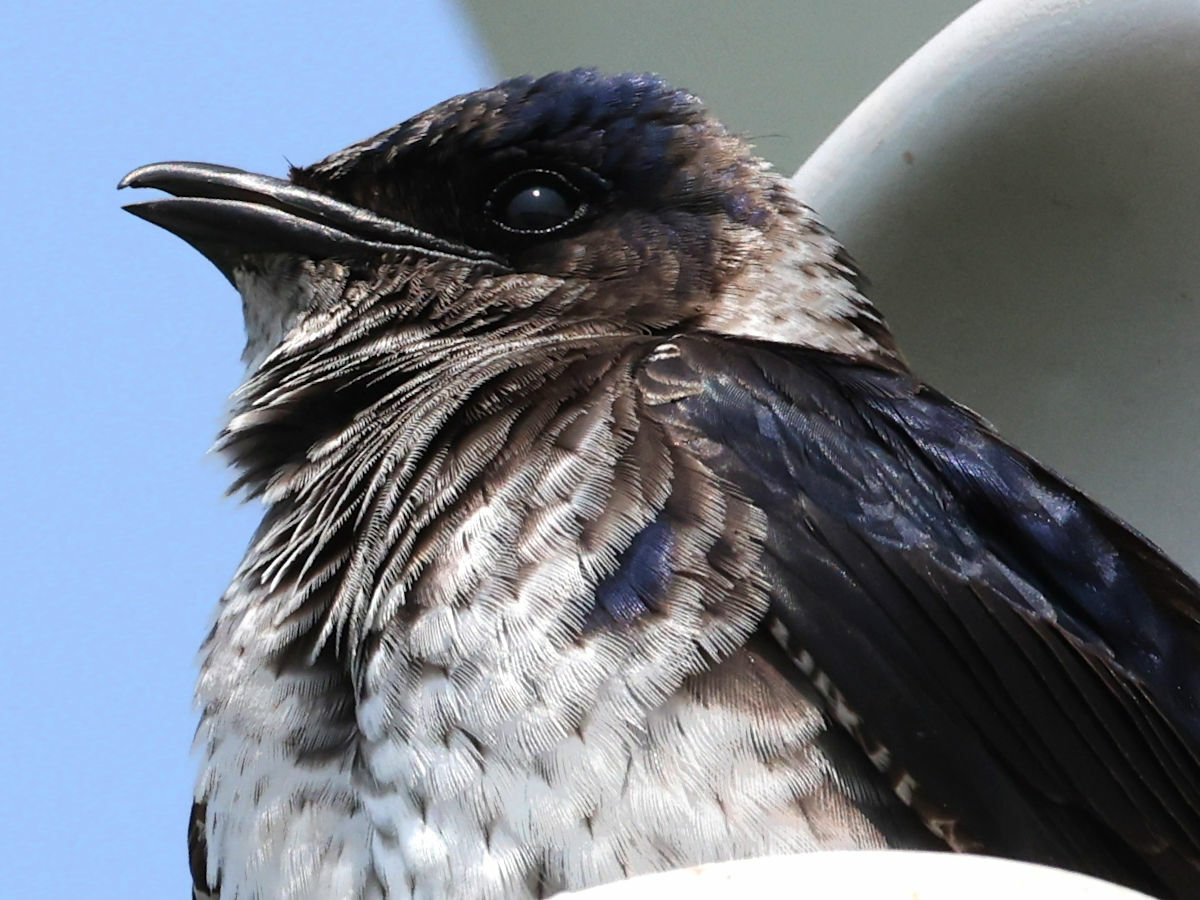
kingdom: Animalia
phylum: Chordata
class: Aves
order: Passeriformes
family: Hirundinidae
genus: Progne
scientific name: Progne subis
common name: Purple martin
